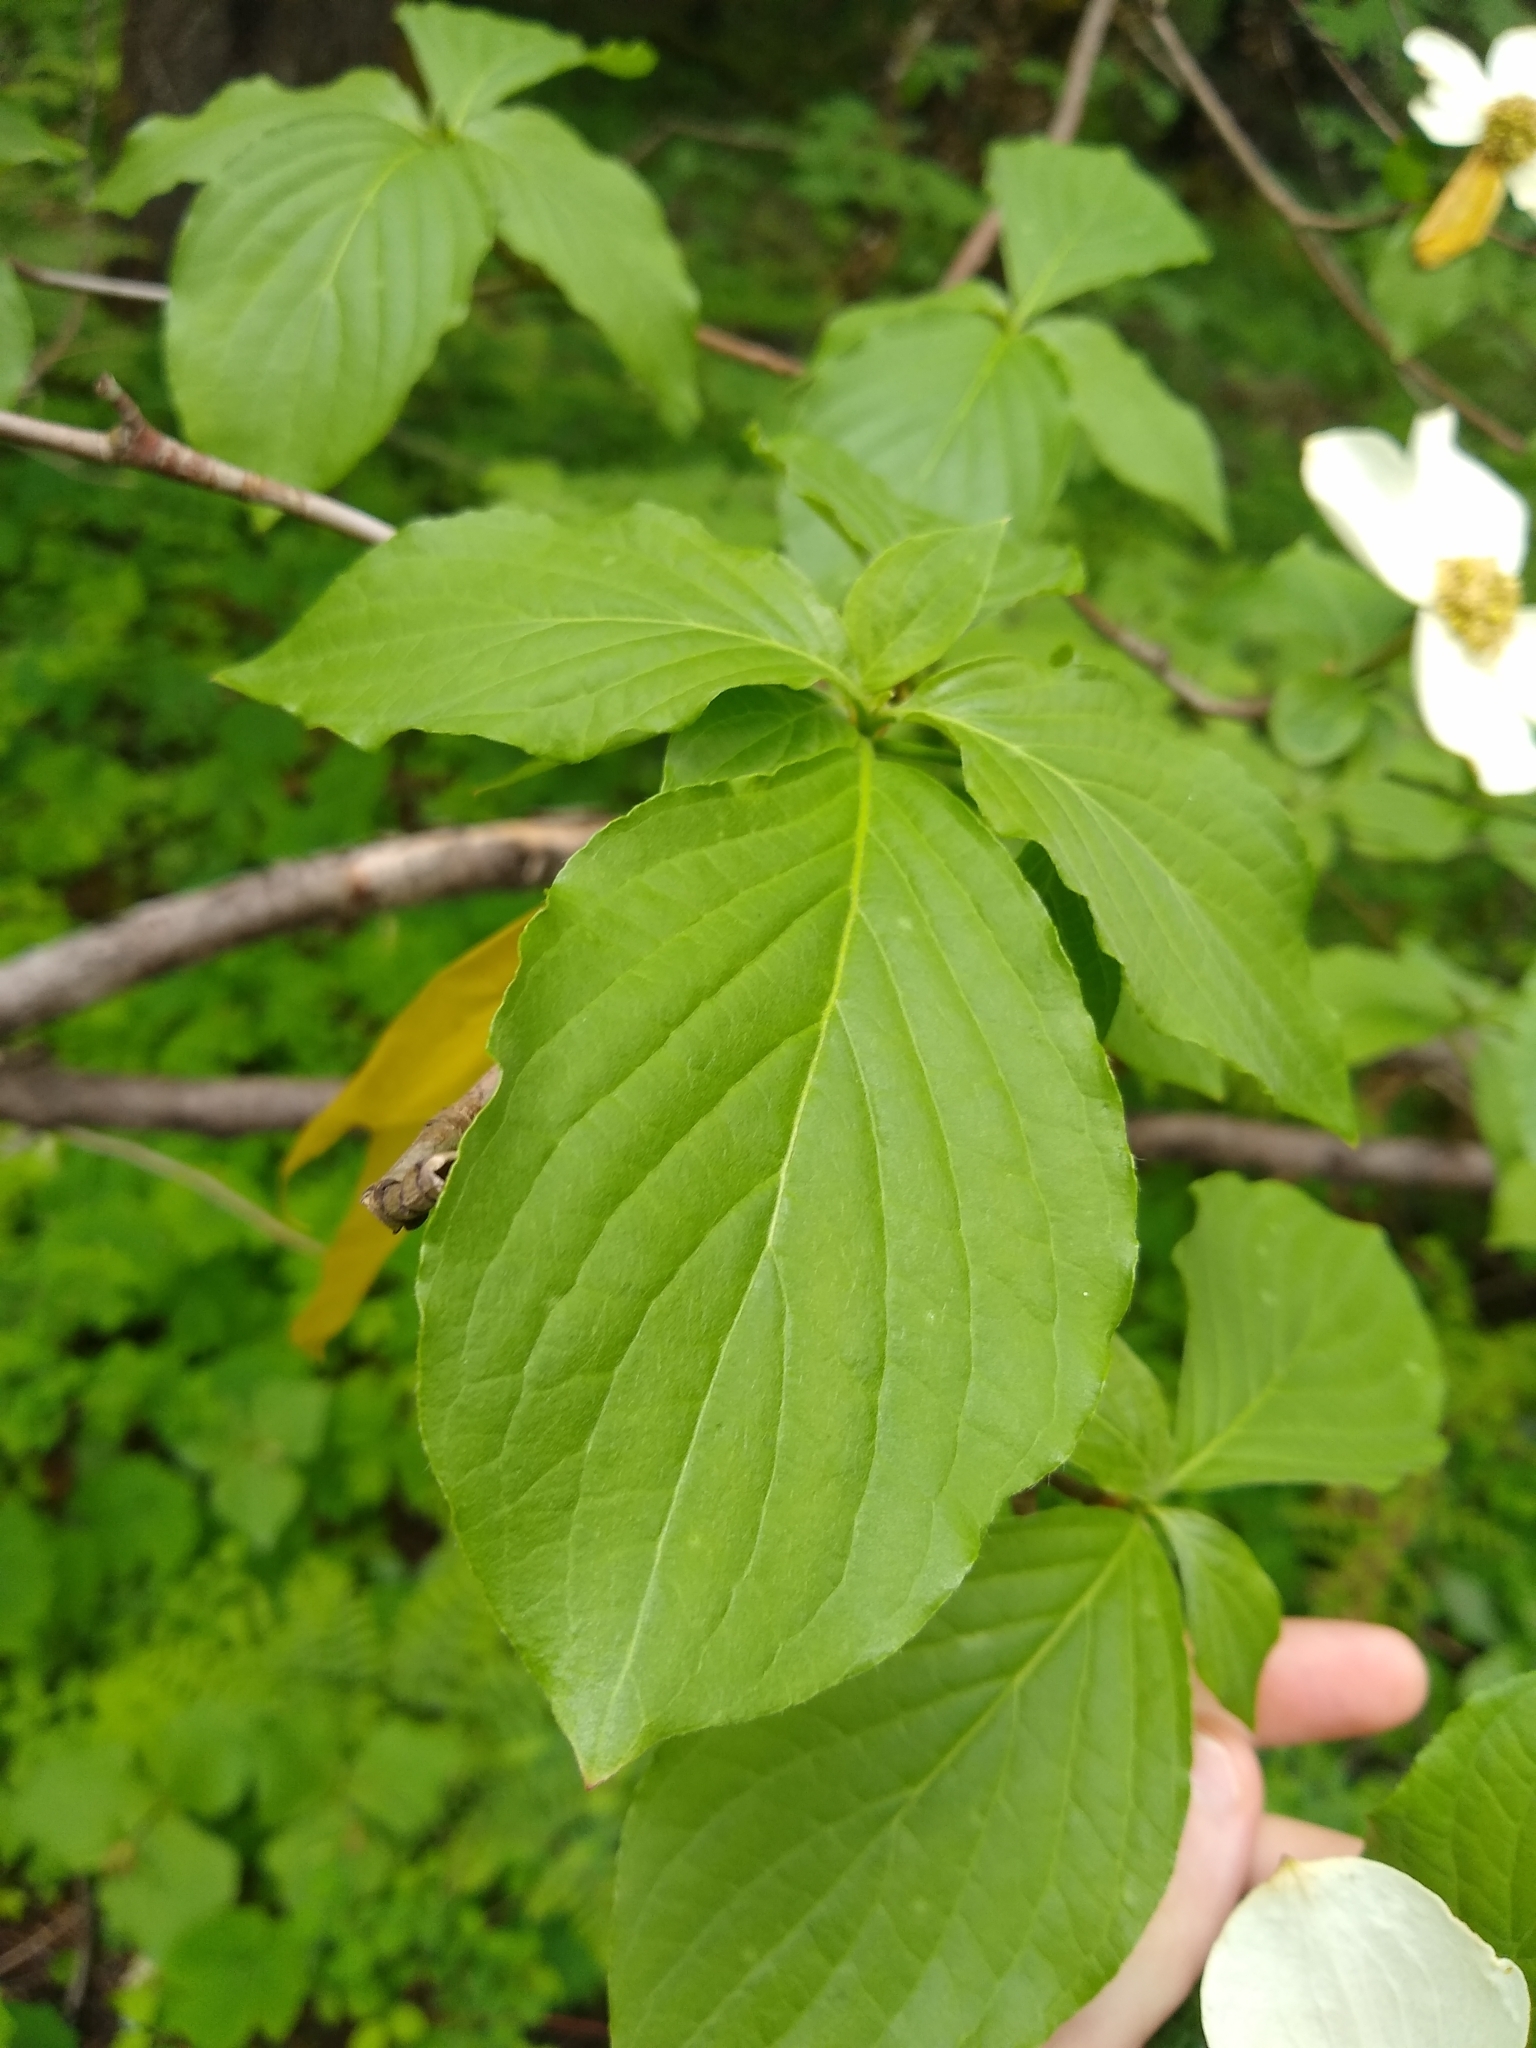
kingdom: Plantae
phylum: Tracheophyta
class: Magnoliopsida
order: Cornales
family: Cornaceae
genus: Cornus
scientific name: Cornus nuttallii
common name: Pacific dogwood
